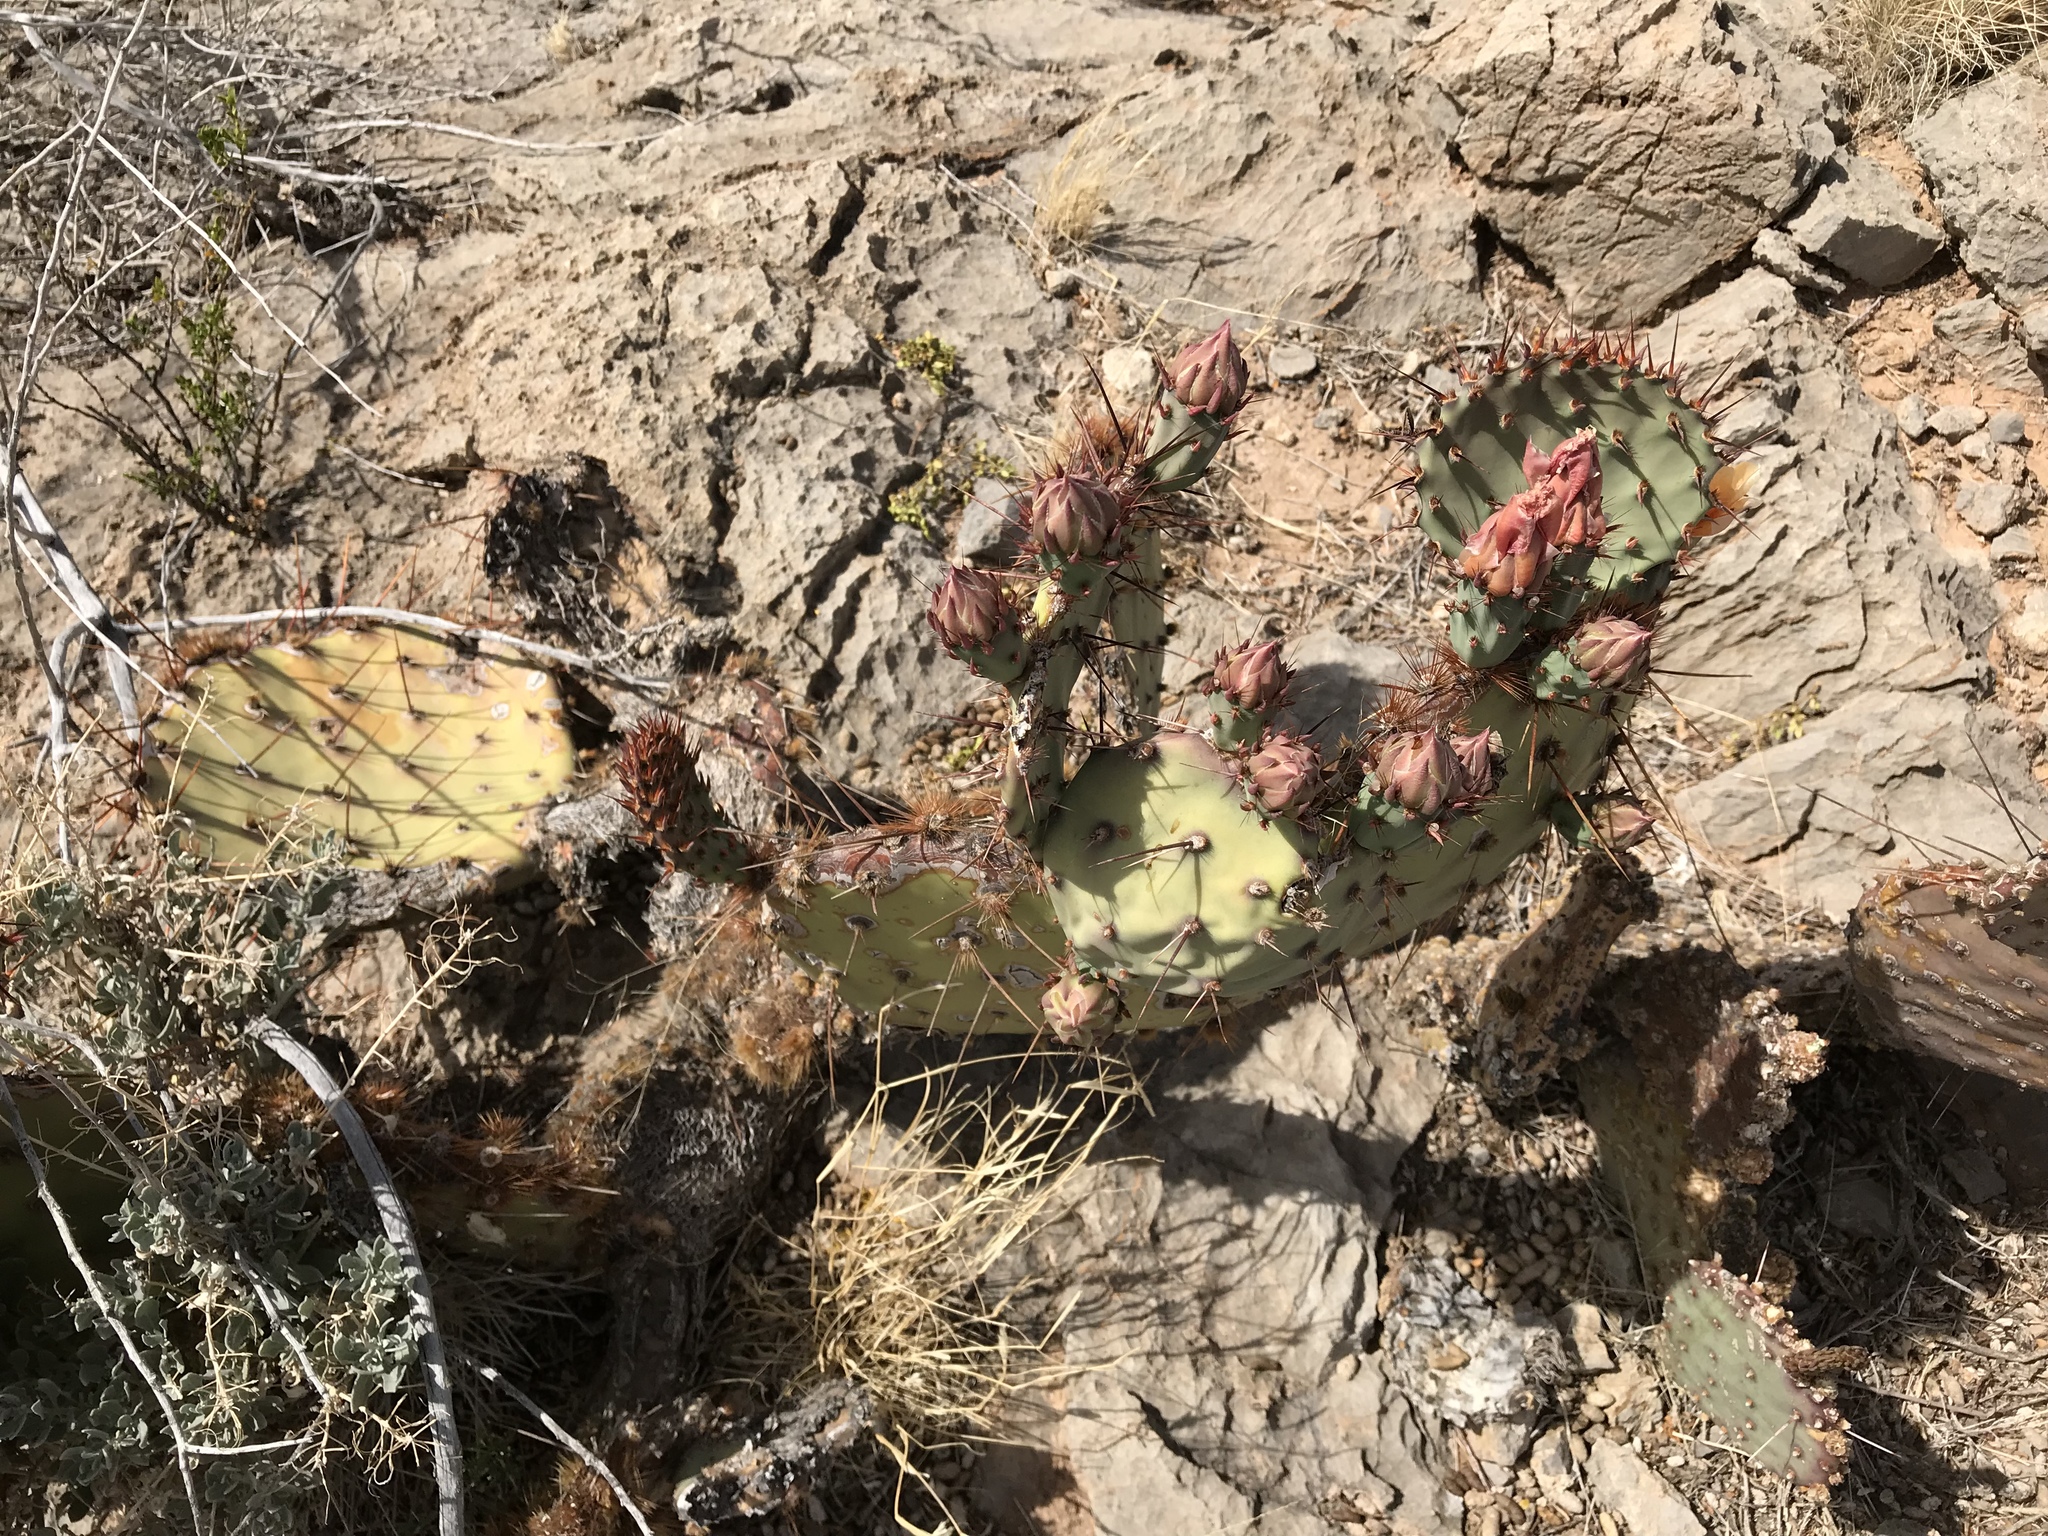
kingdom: Plantae
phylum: Tracheophyta
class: Magnoliopsida
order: Caryophyllales
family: Cactaceae
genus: Opuntia
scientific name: Opuntia phaeacantha
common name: New mexico prickly-pear
